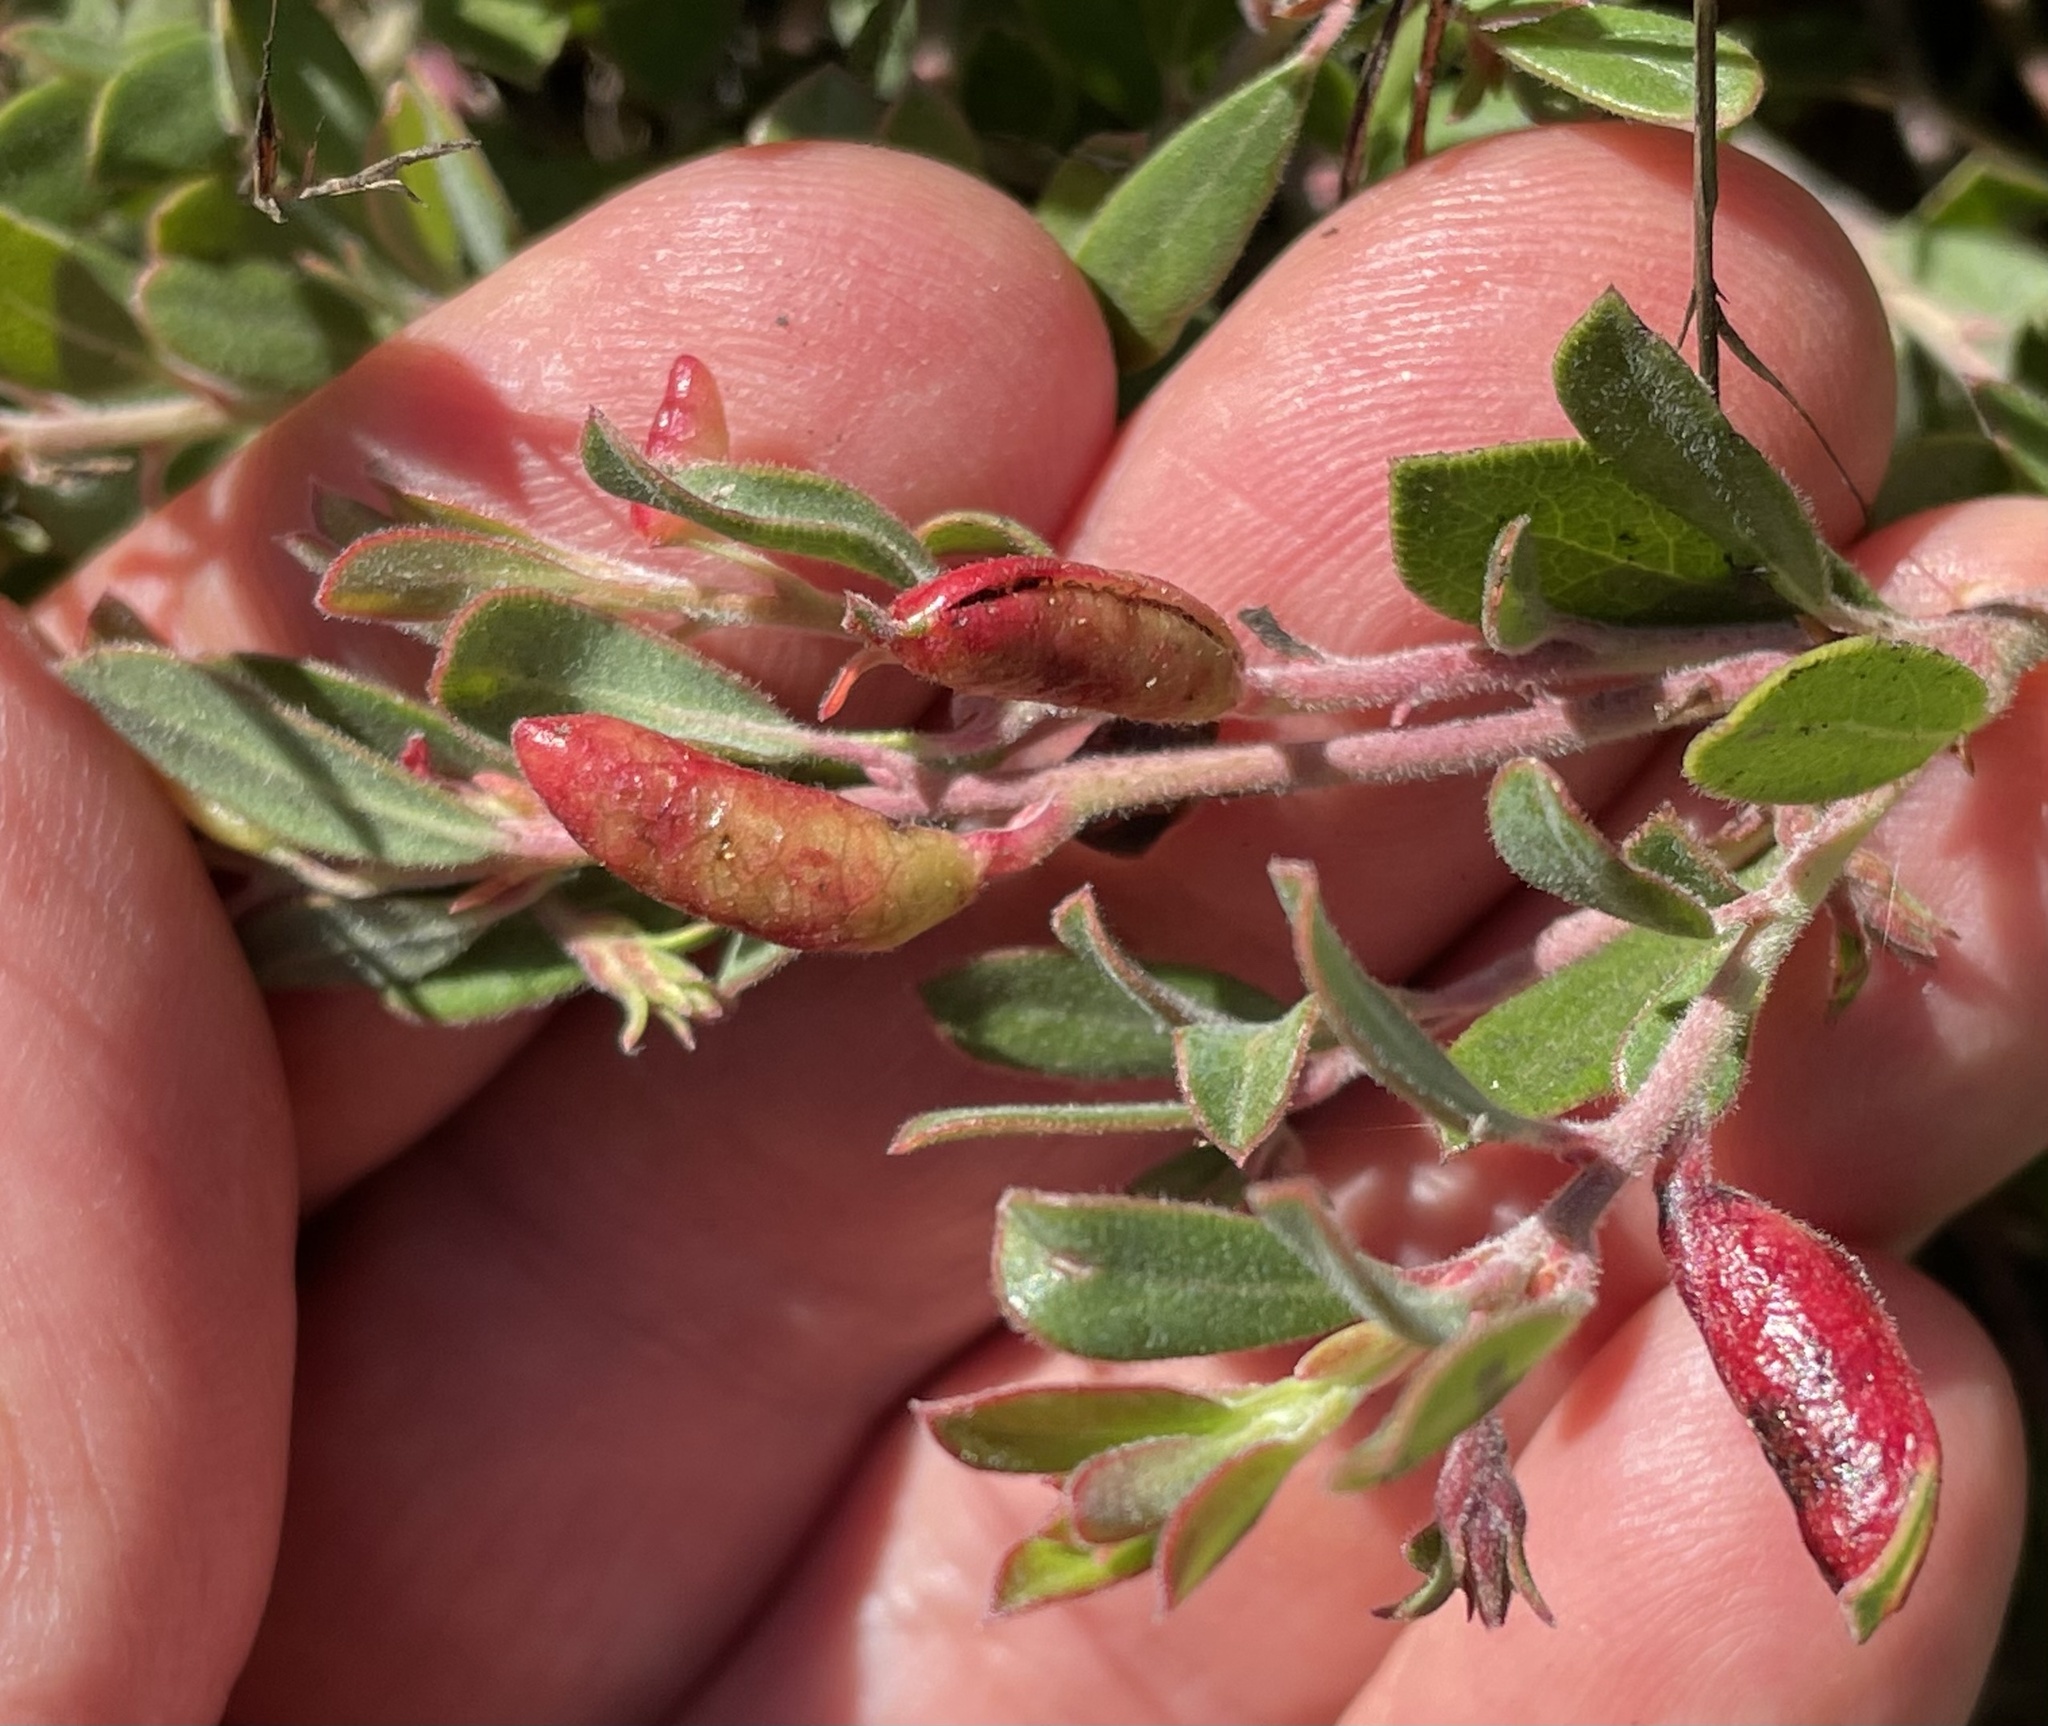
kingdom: Animalia
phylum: Arthropoda
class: Insecta
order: Hemiptera
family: Aphididae
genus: Tamalia
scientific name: Tamalia coweni
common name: Manzanita leafgall aphid
